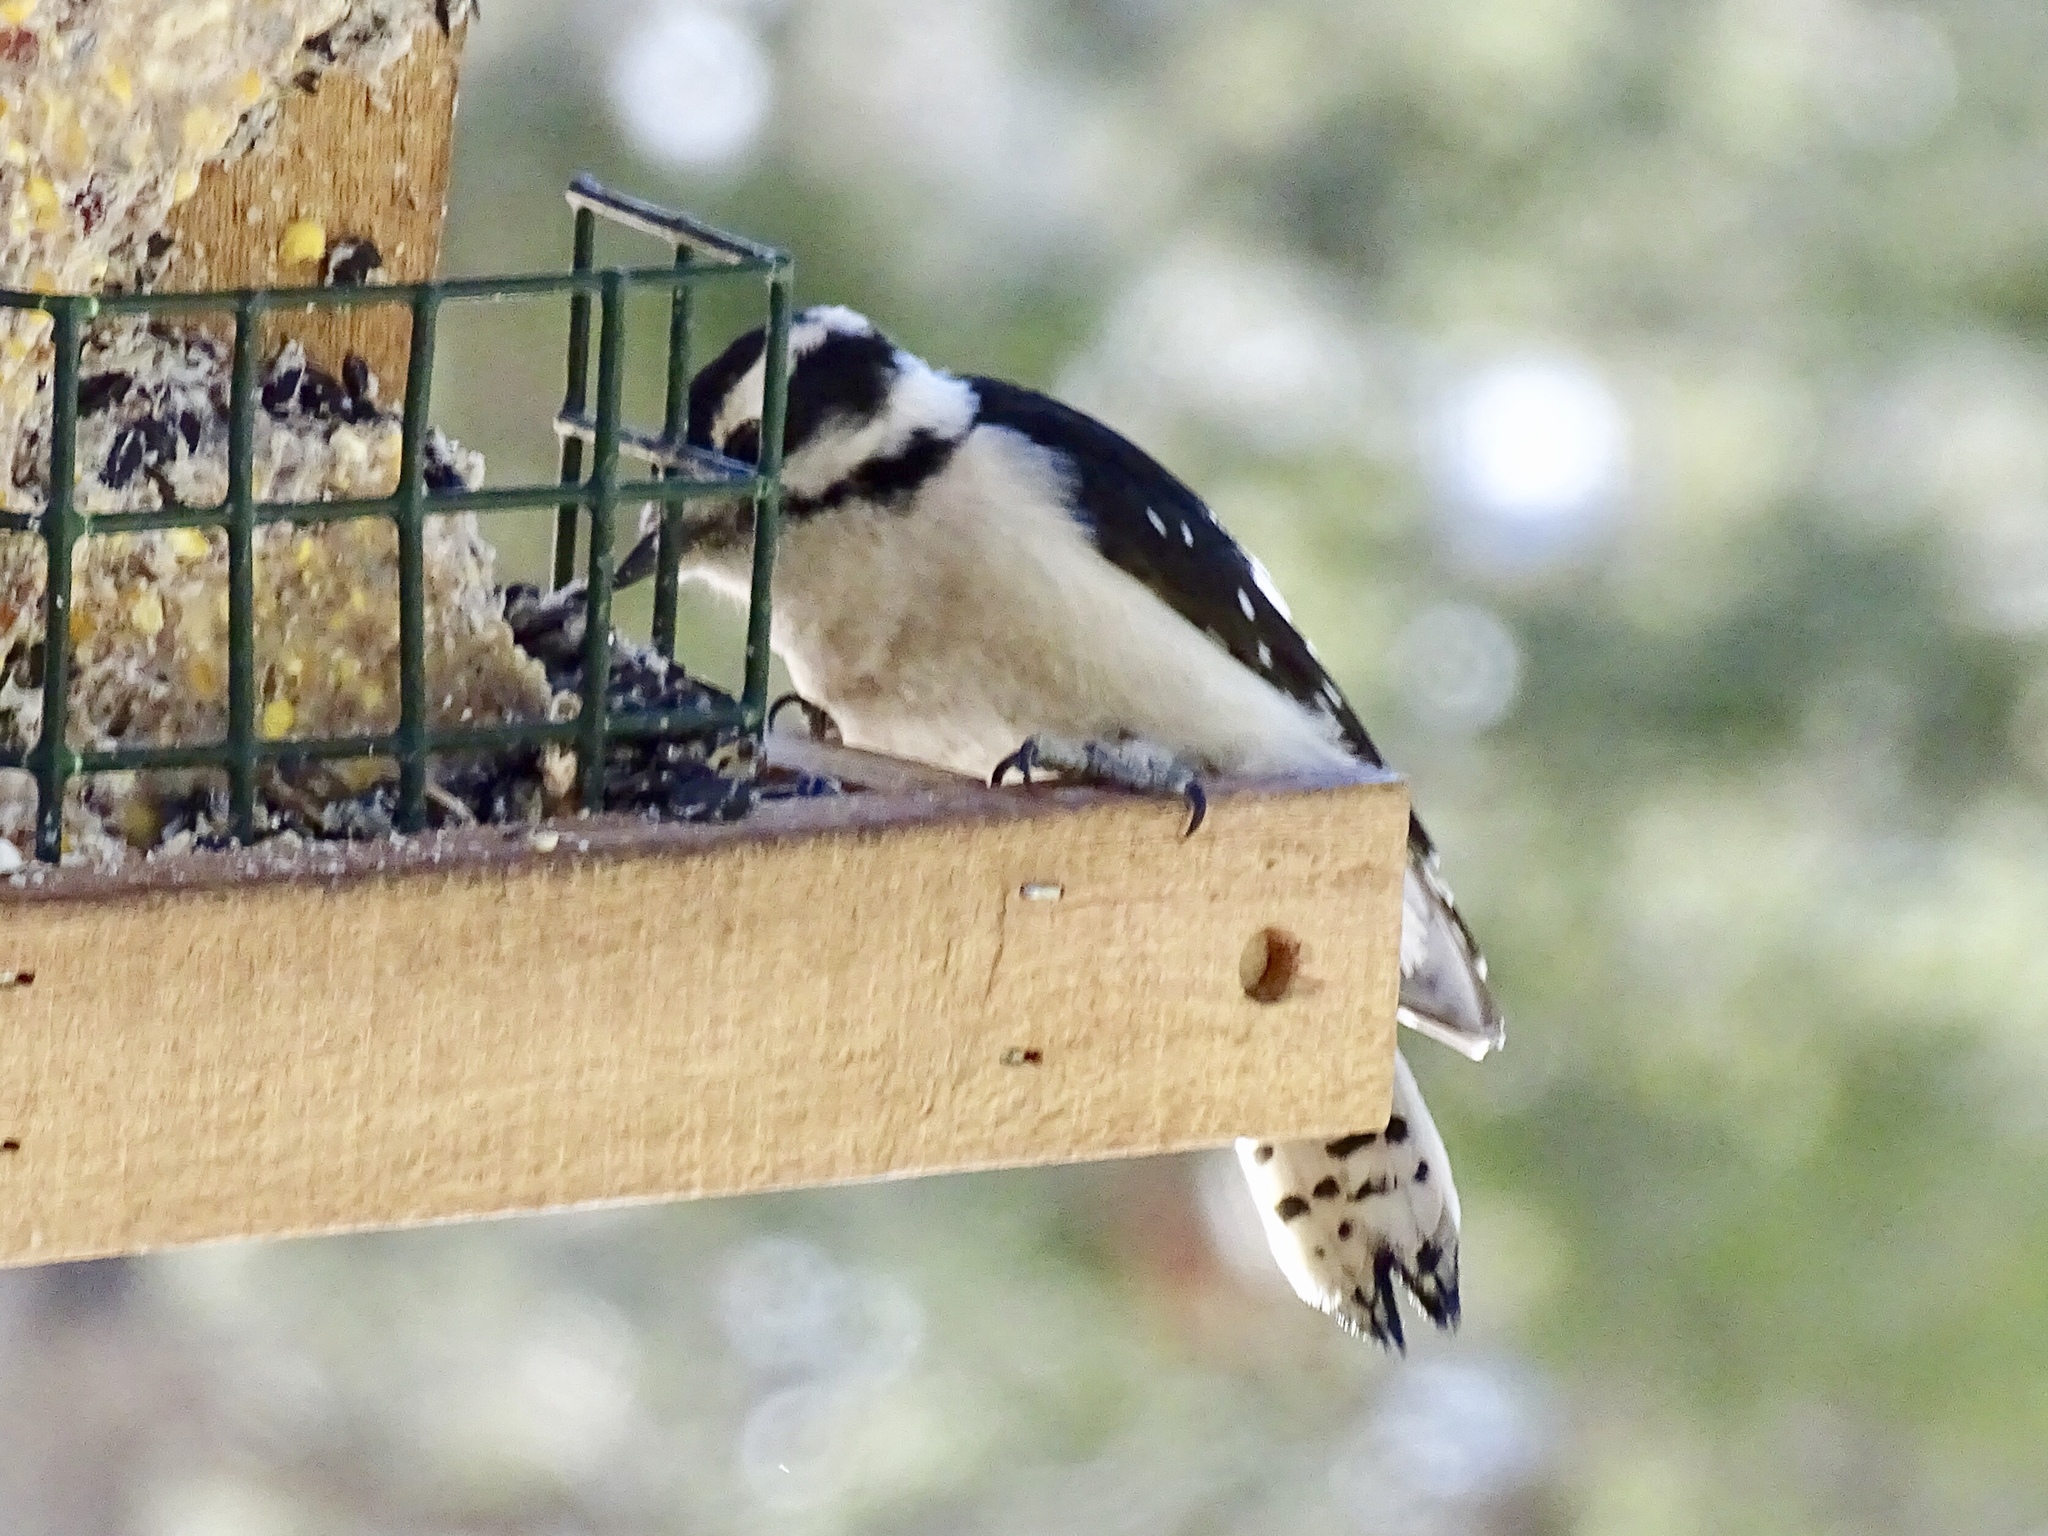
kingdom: Animalia
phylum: Chordata
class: Aves
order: Piciformes
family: Picidae
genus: Dryobates
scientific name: Dryobates pubescens
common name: Downy woodpecker
